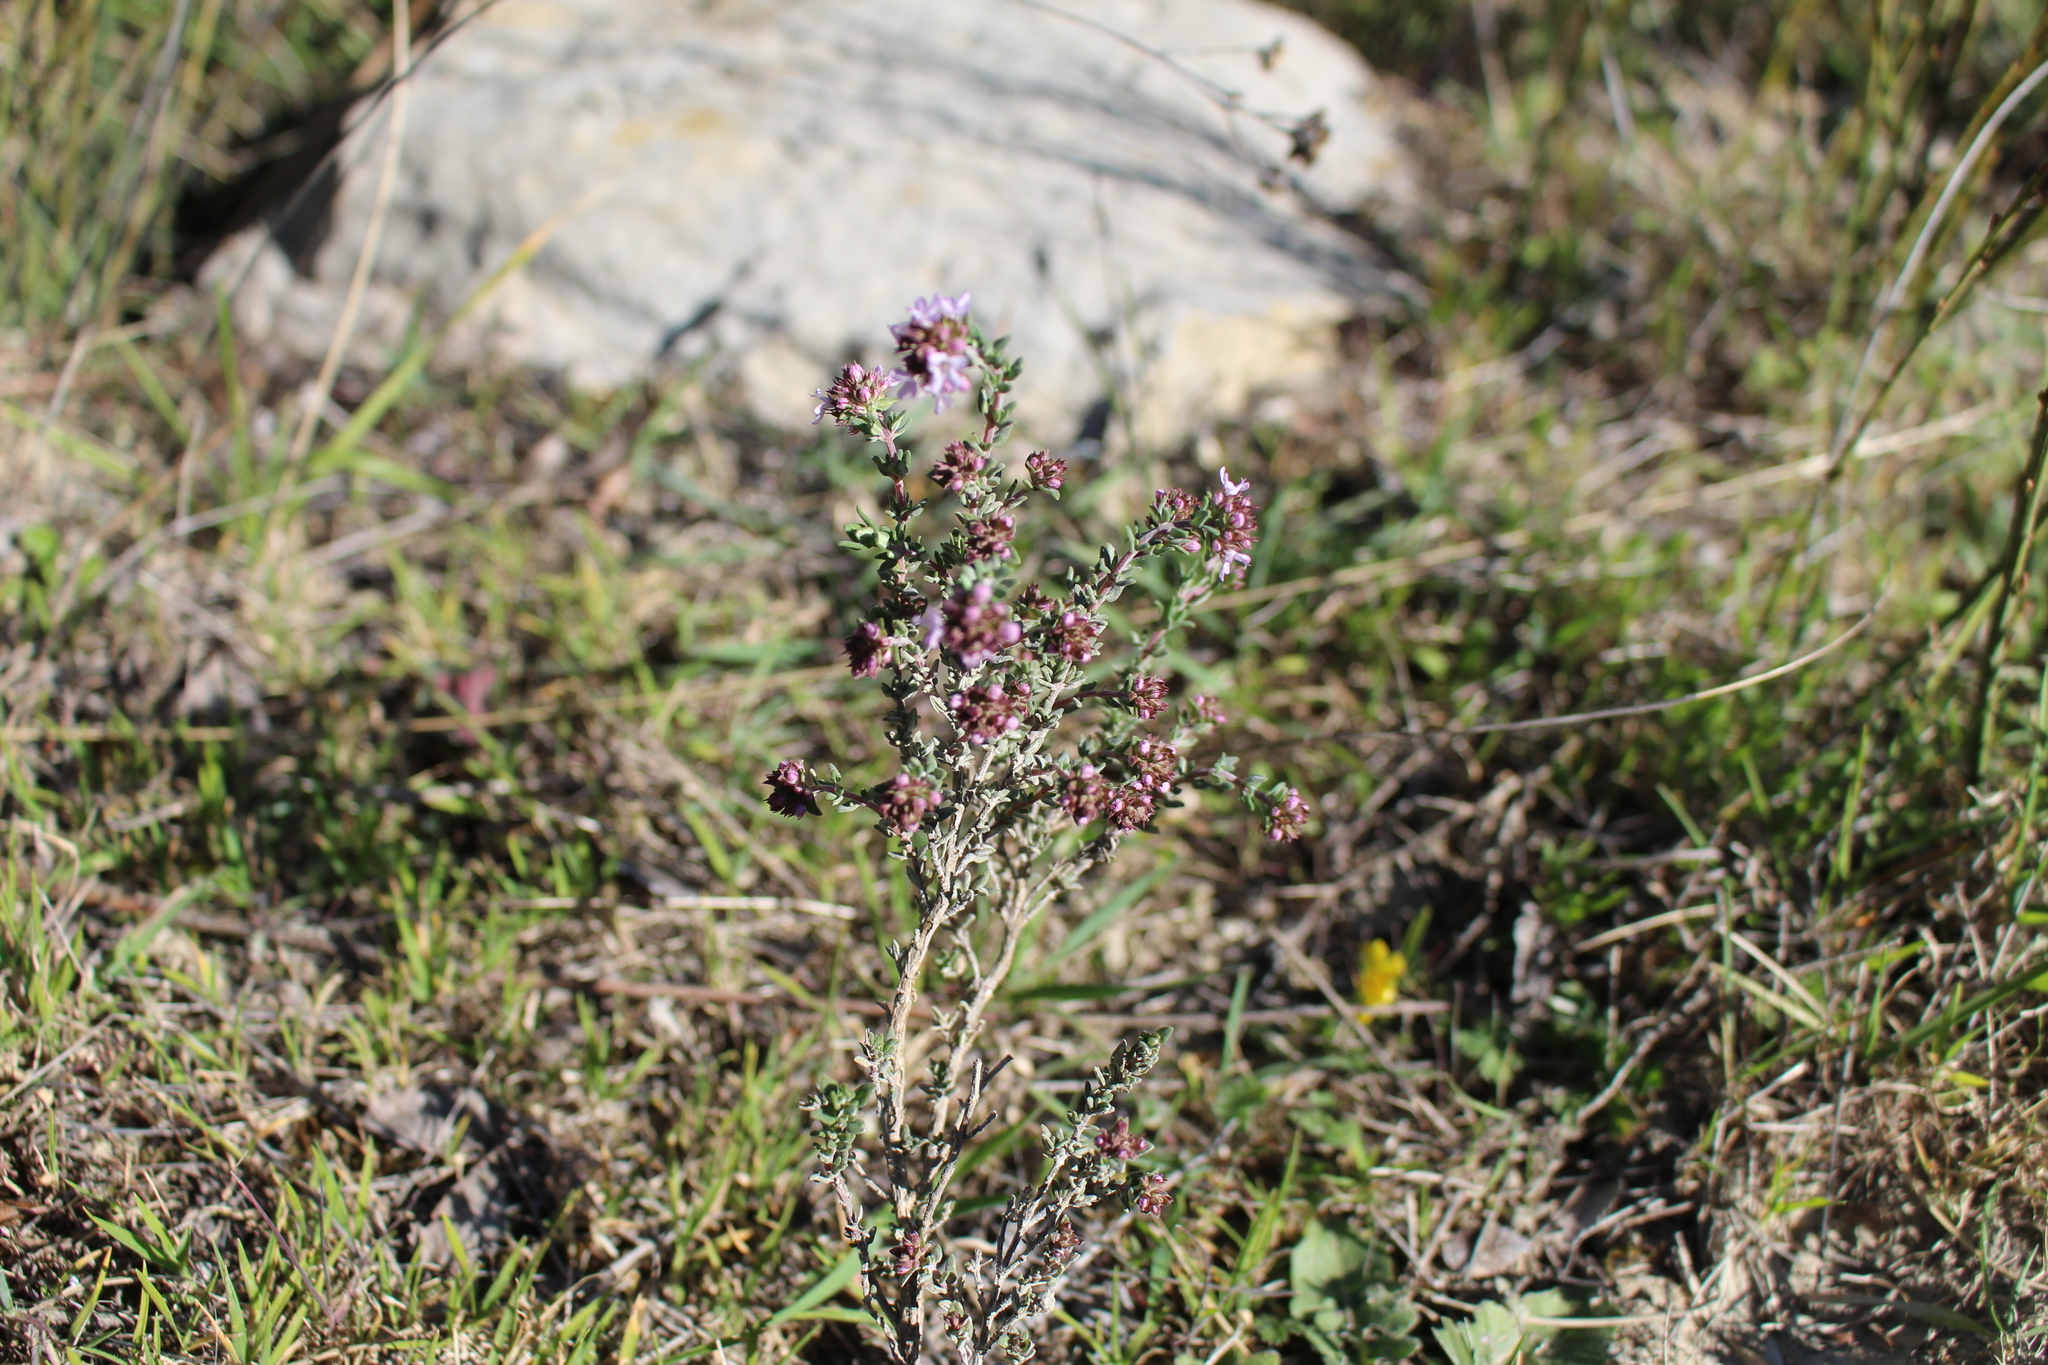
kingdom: Plantae
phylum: Tracheophyta
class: Magnoliopsida
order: Lamiales
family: Lamiaceae
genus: Thymus
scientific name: Thymus vulgaris
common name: Garden thyme
